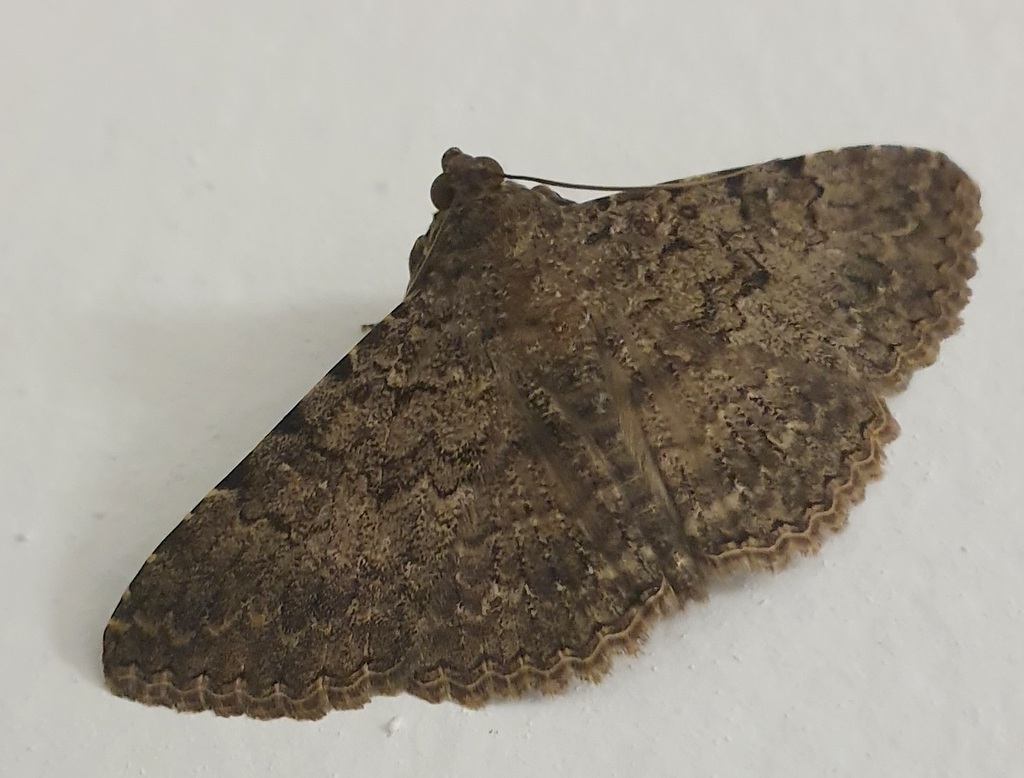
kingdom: Animalia
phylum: Arthropoda
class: Insecta
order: Lepidoptera
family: Erebidae
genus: Polydesma
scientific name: Polydesma umbricola
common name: Monkeypod moth
